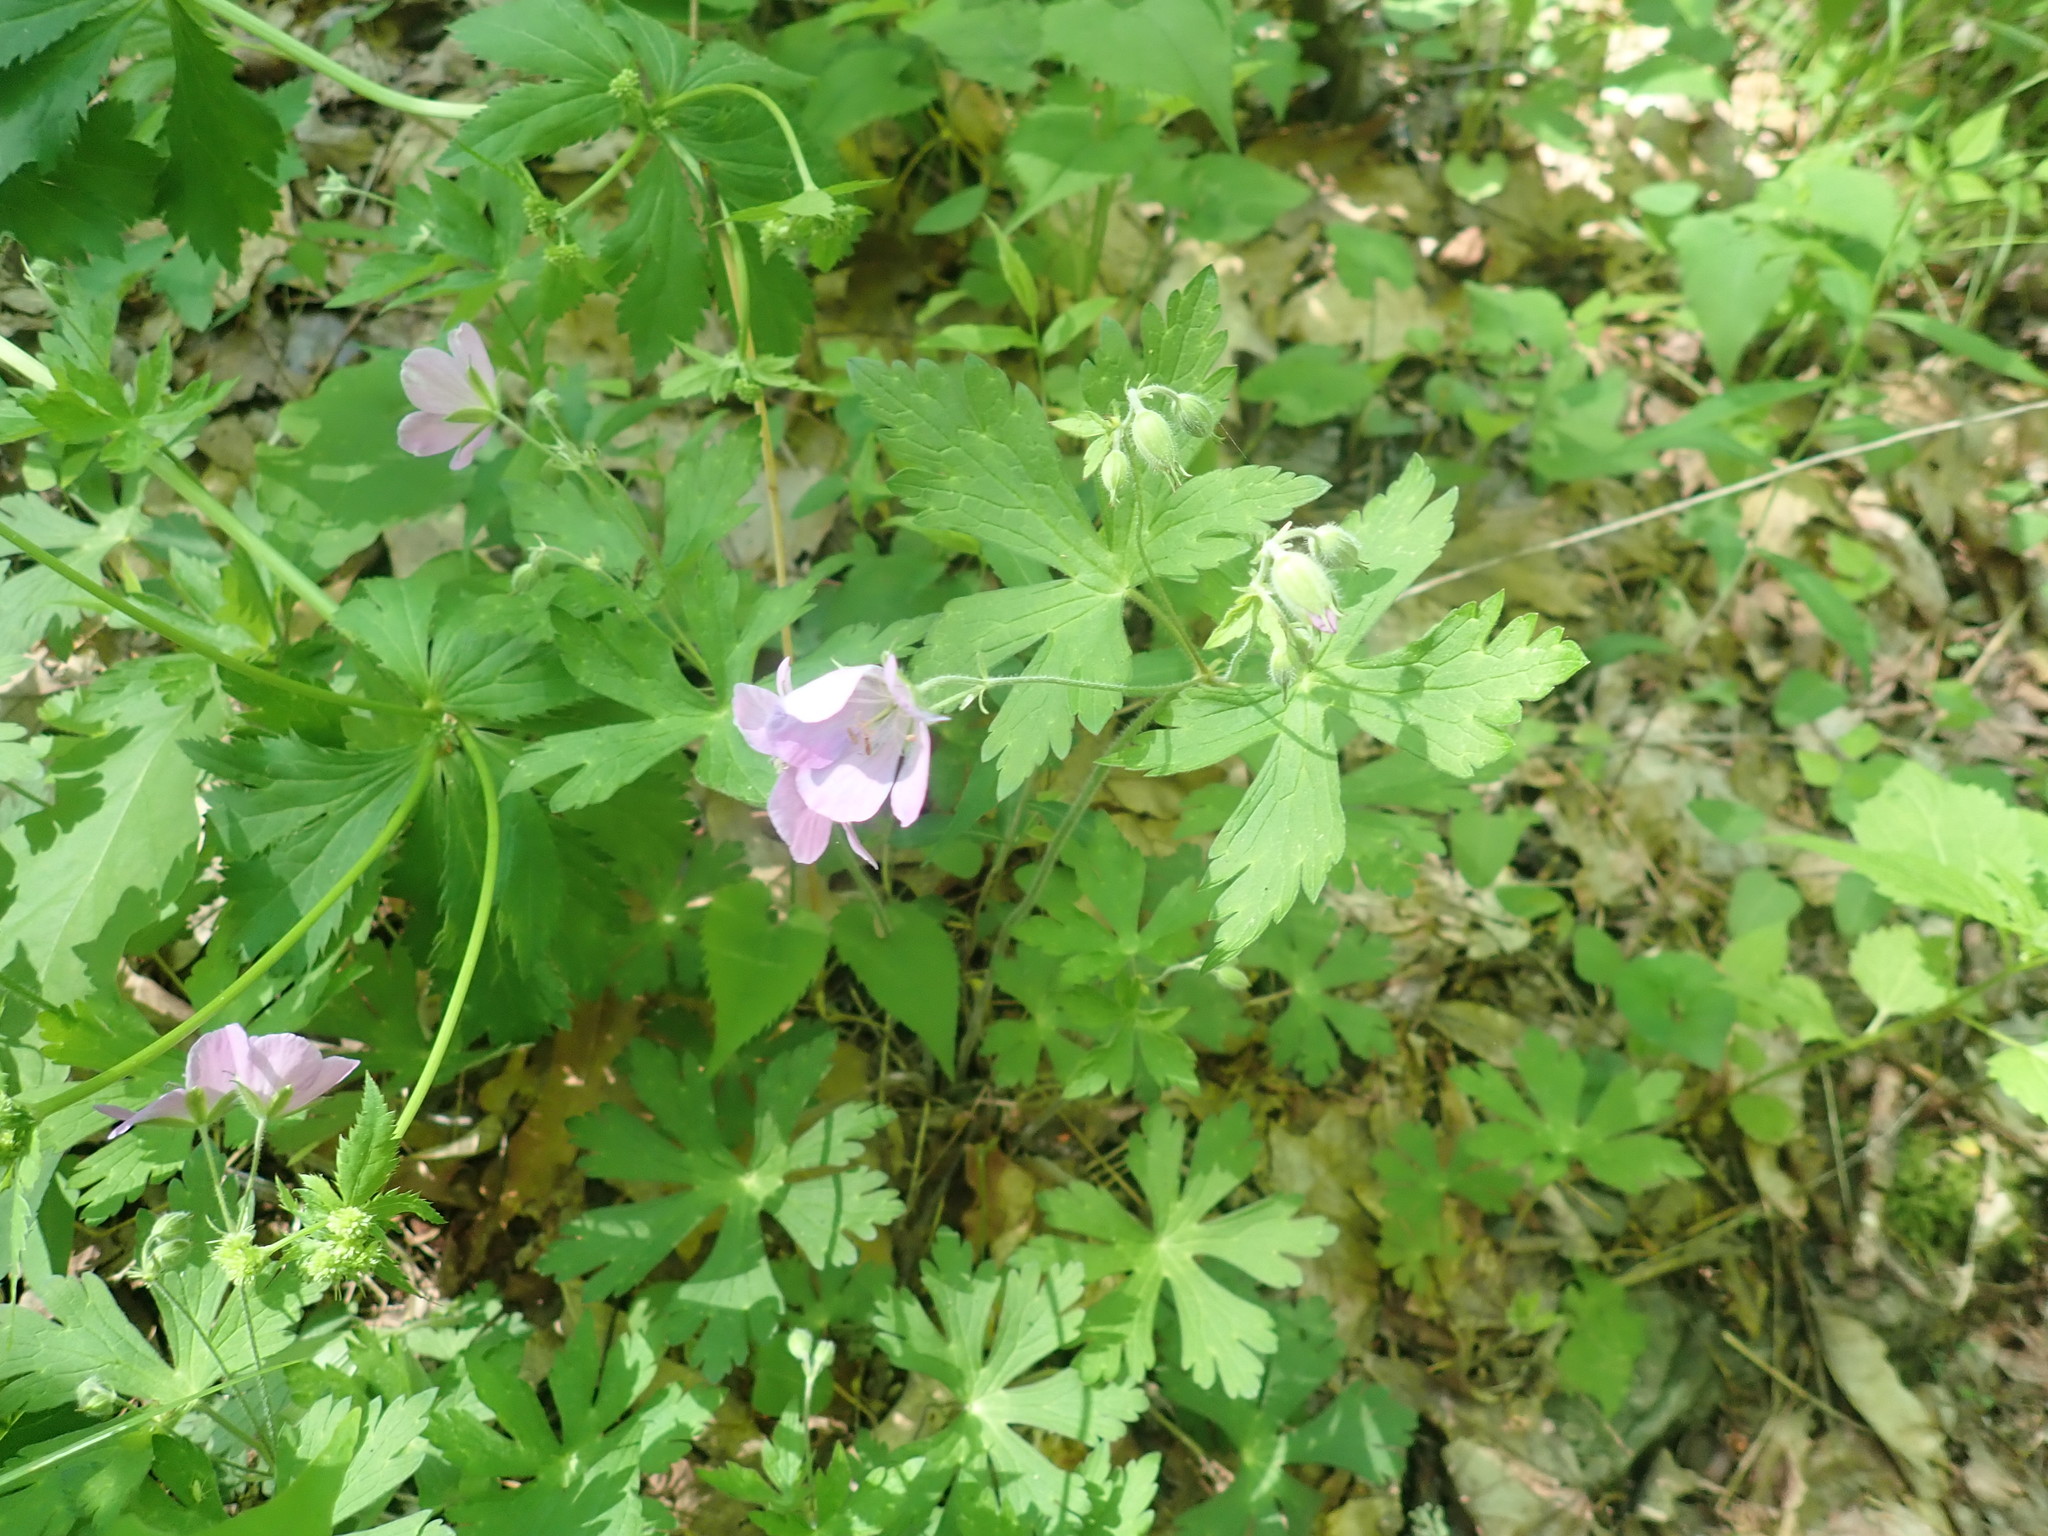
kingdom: Plantae
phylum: Tracheophyta
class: Magnoliopsida
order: Geraniales
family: Geraniaceae
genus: Geranium
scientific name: Geranium maculatum
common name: Spotted geranium
